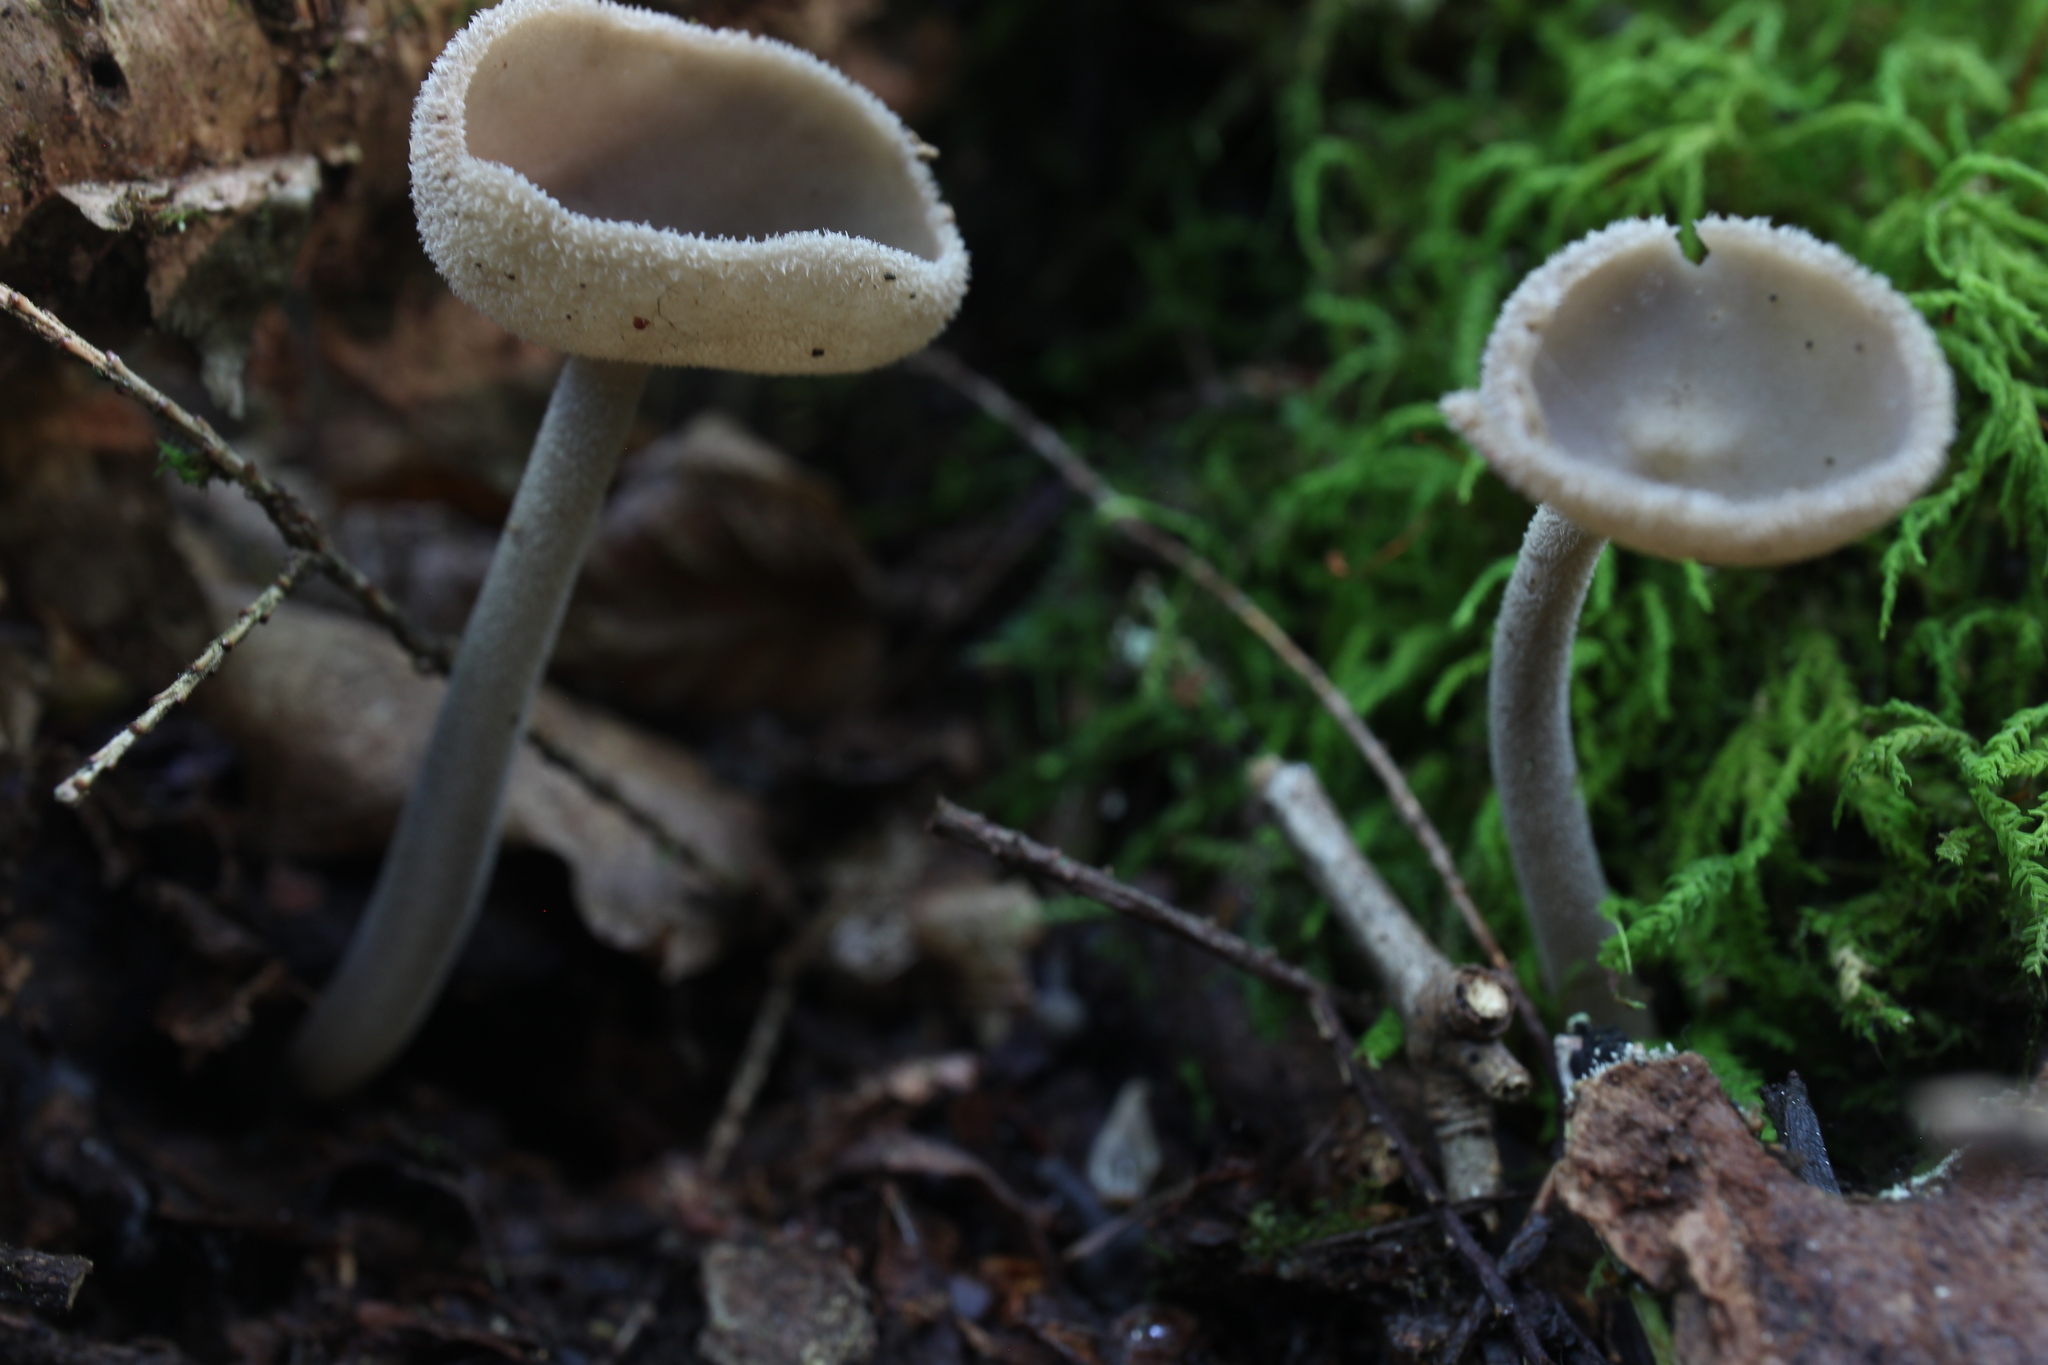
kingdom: Fungi
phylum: Ascomycota
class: Pezizomycetes
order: Pezizales
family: Helvellaceae
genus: Helvella
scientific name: Helvella macropus
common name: Felt saddle
